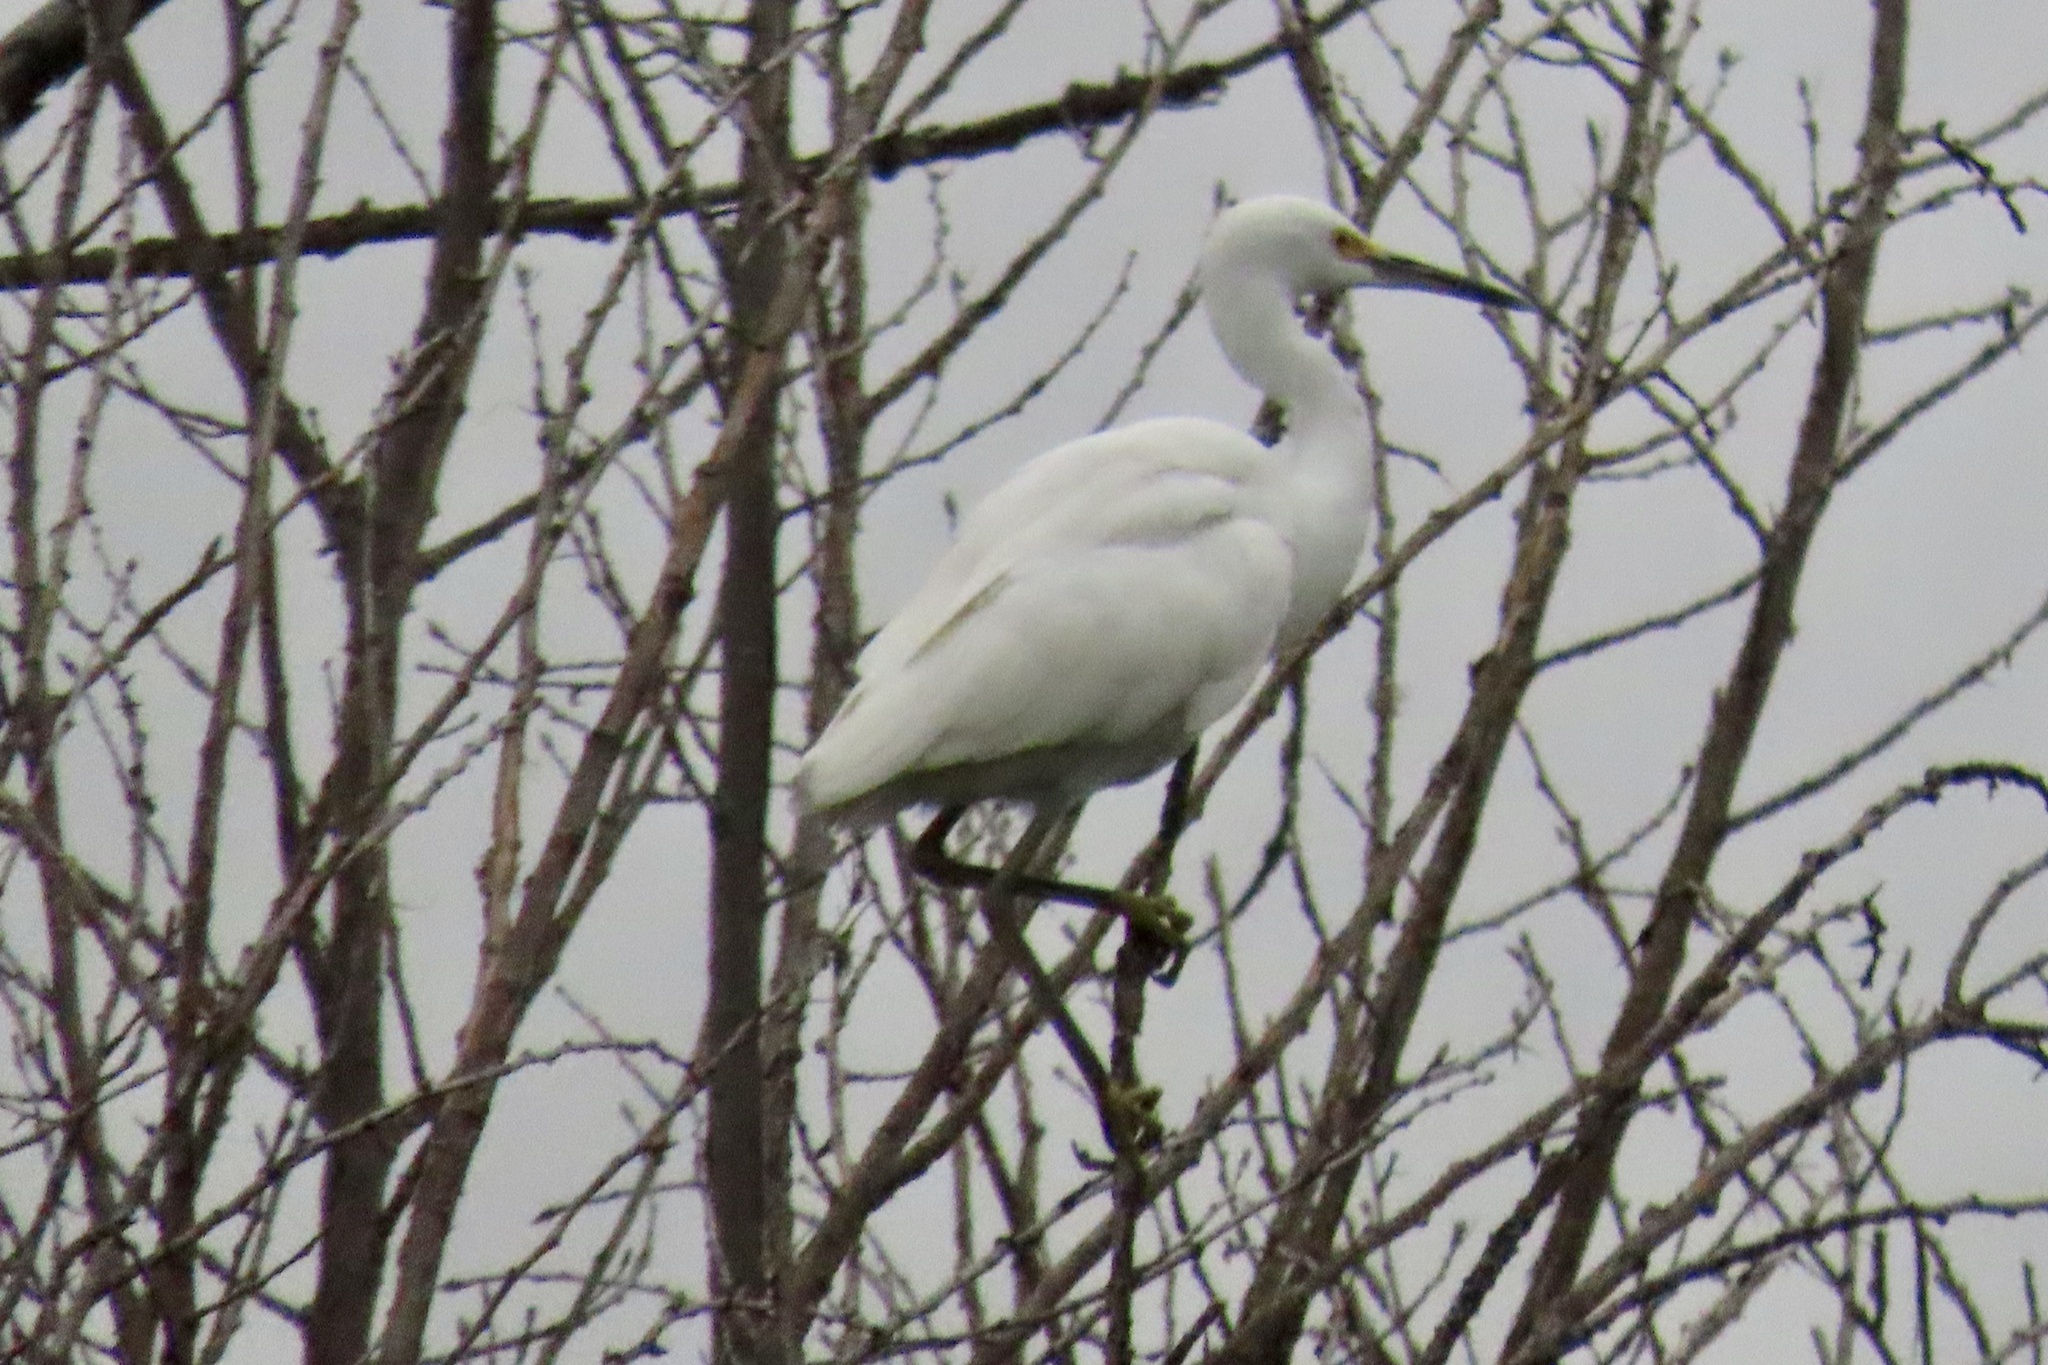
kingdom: Animalia
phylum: Chordata
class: Aves
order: Pelecaniformes
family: Ardeidae
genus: Egretta
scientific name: Egretta thula
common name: Snowy egret
